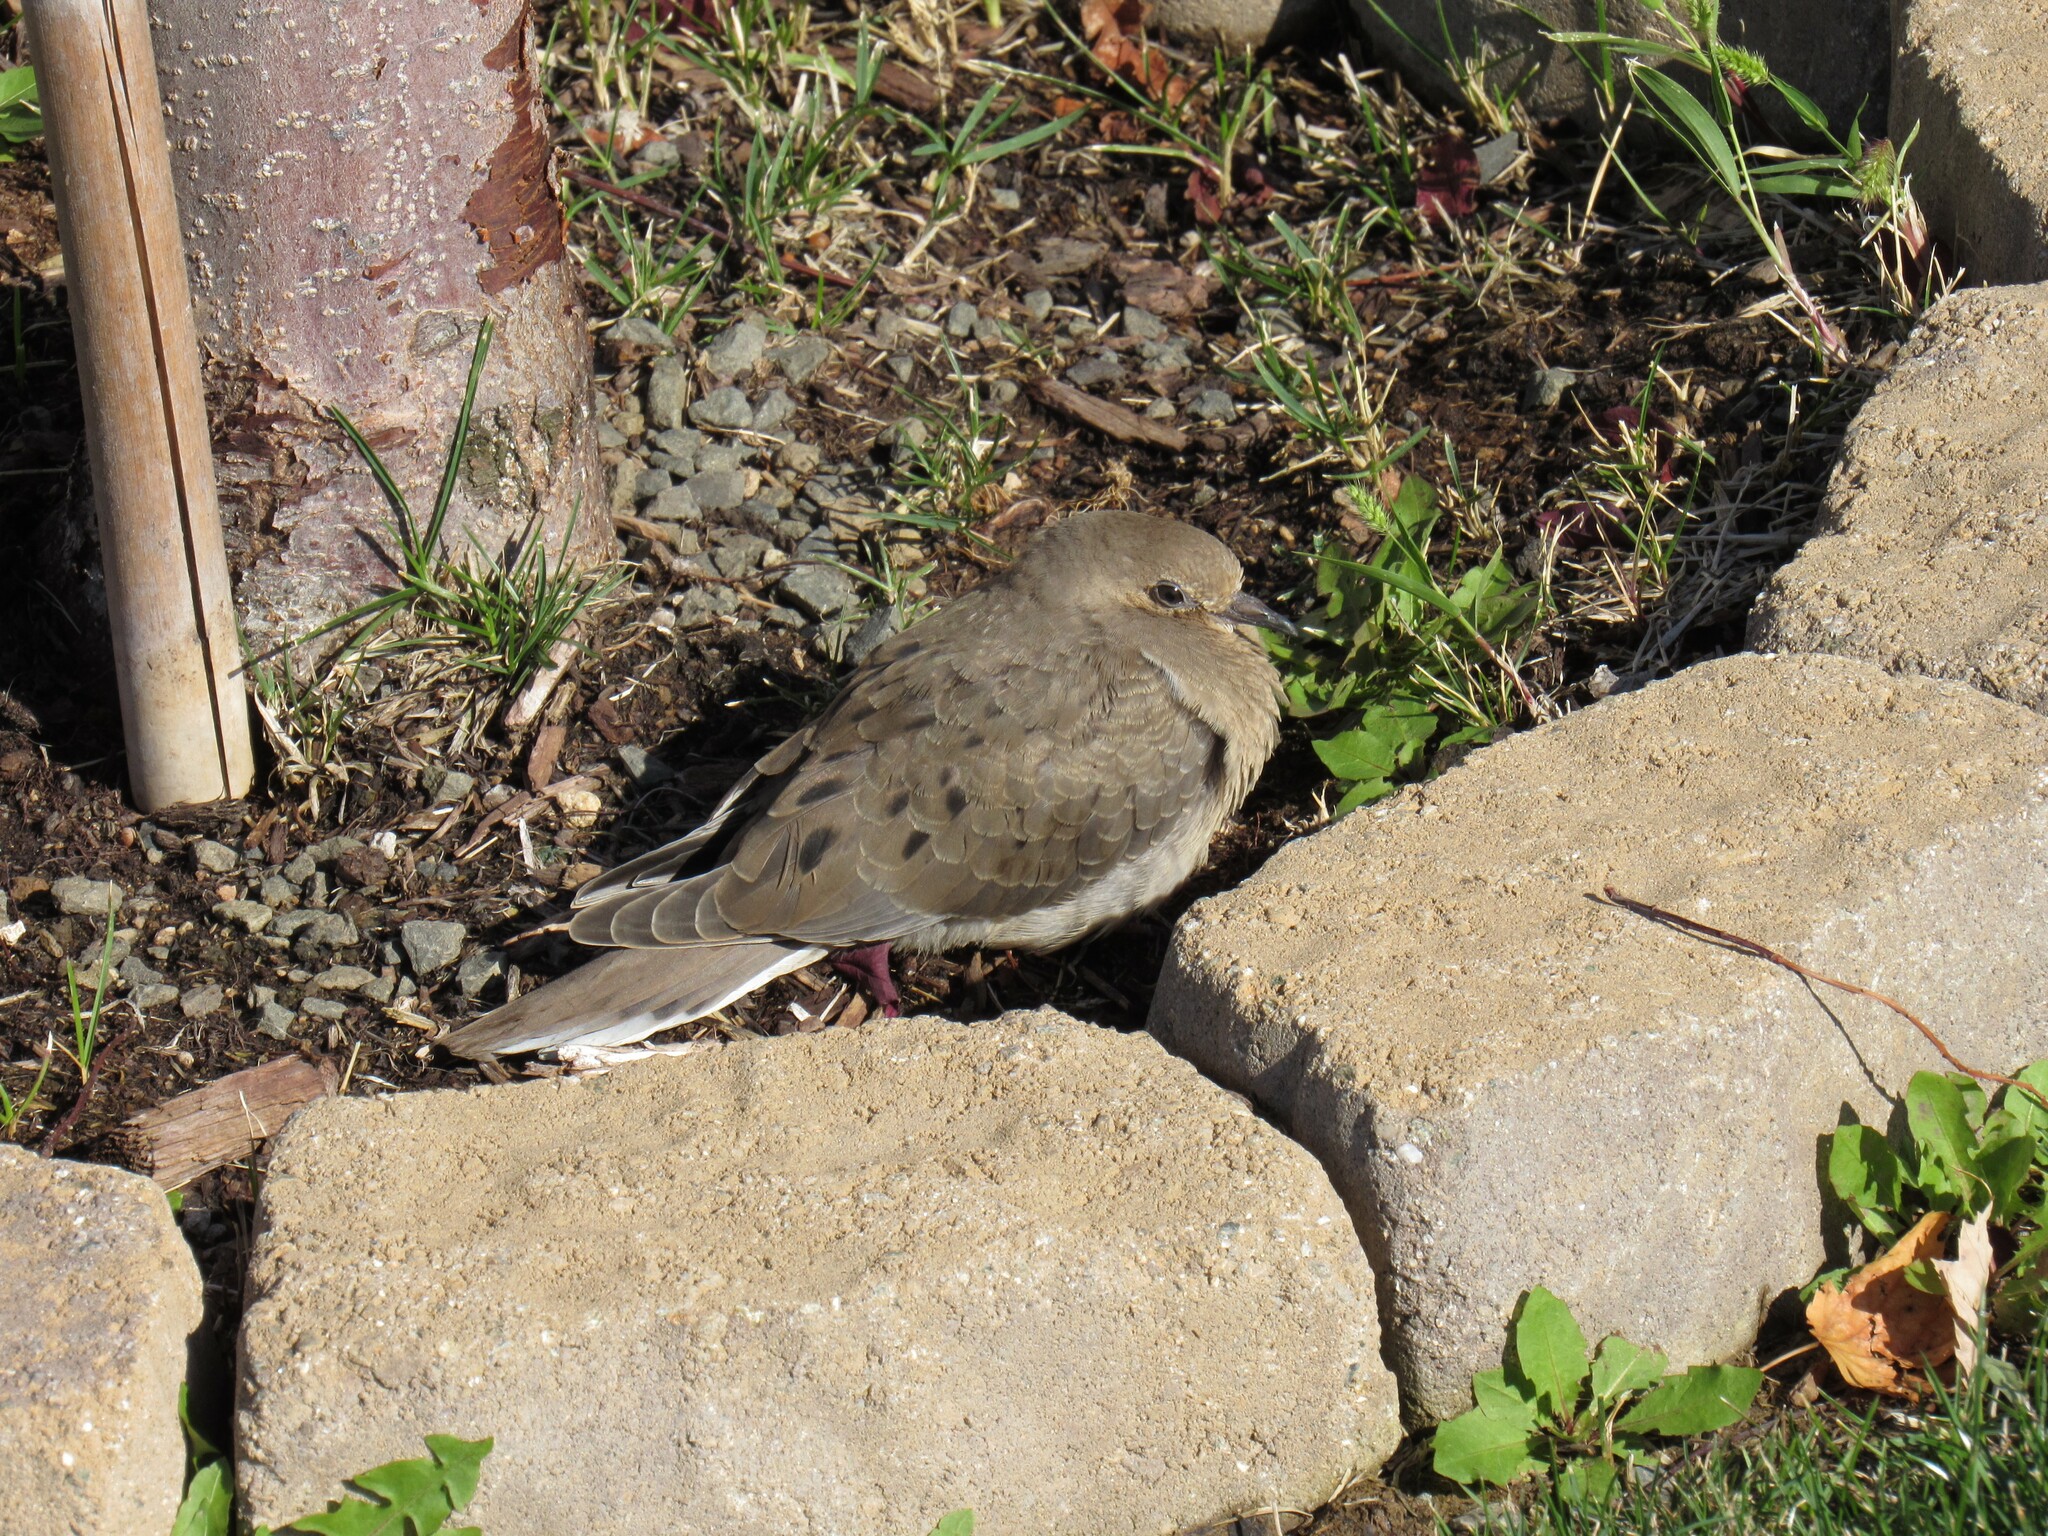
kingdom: Animalia
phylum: Chordata
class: Aves
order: Columbiformes
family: Columbidae
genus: Zenaida
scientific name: Zenaida macroura
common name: Mourning dove
